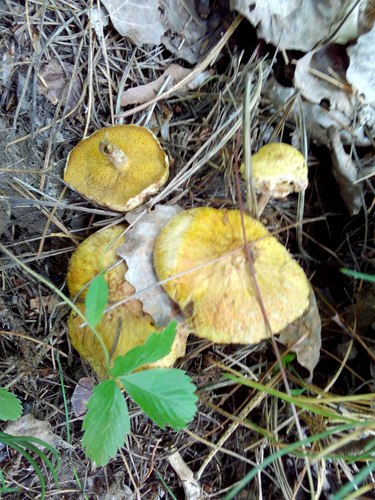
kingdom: Fungi
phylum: Basidiomycota
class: Agaricomycetes
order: Boletales
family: Suillaceae
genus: Suillus
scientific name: Suillus americanus
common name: Chicken fat mushroom
